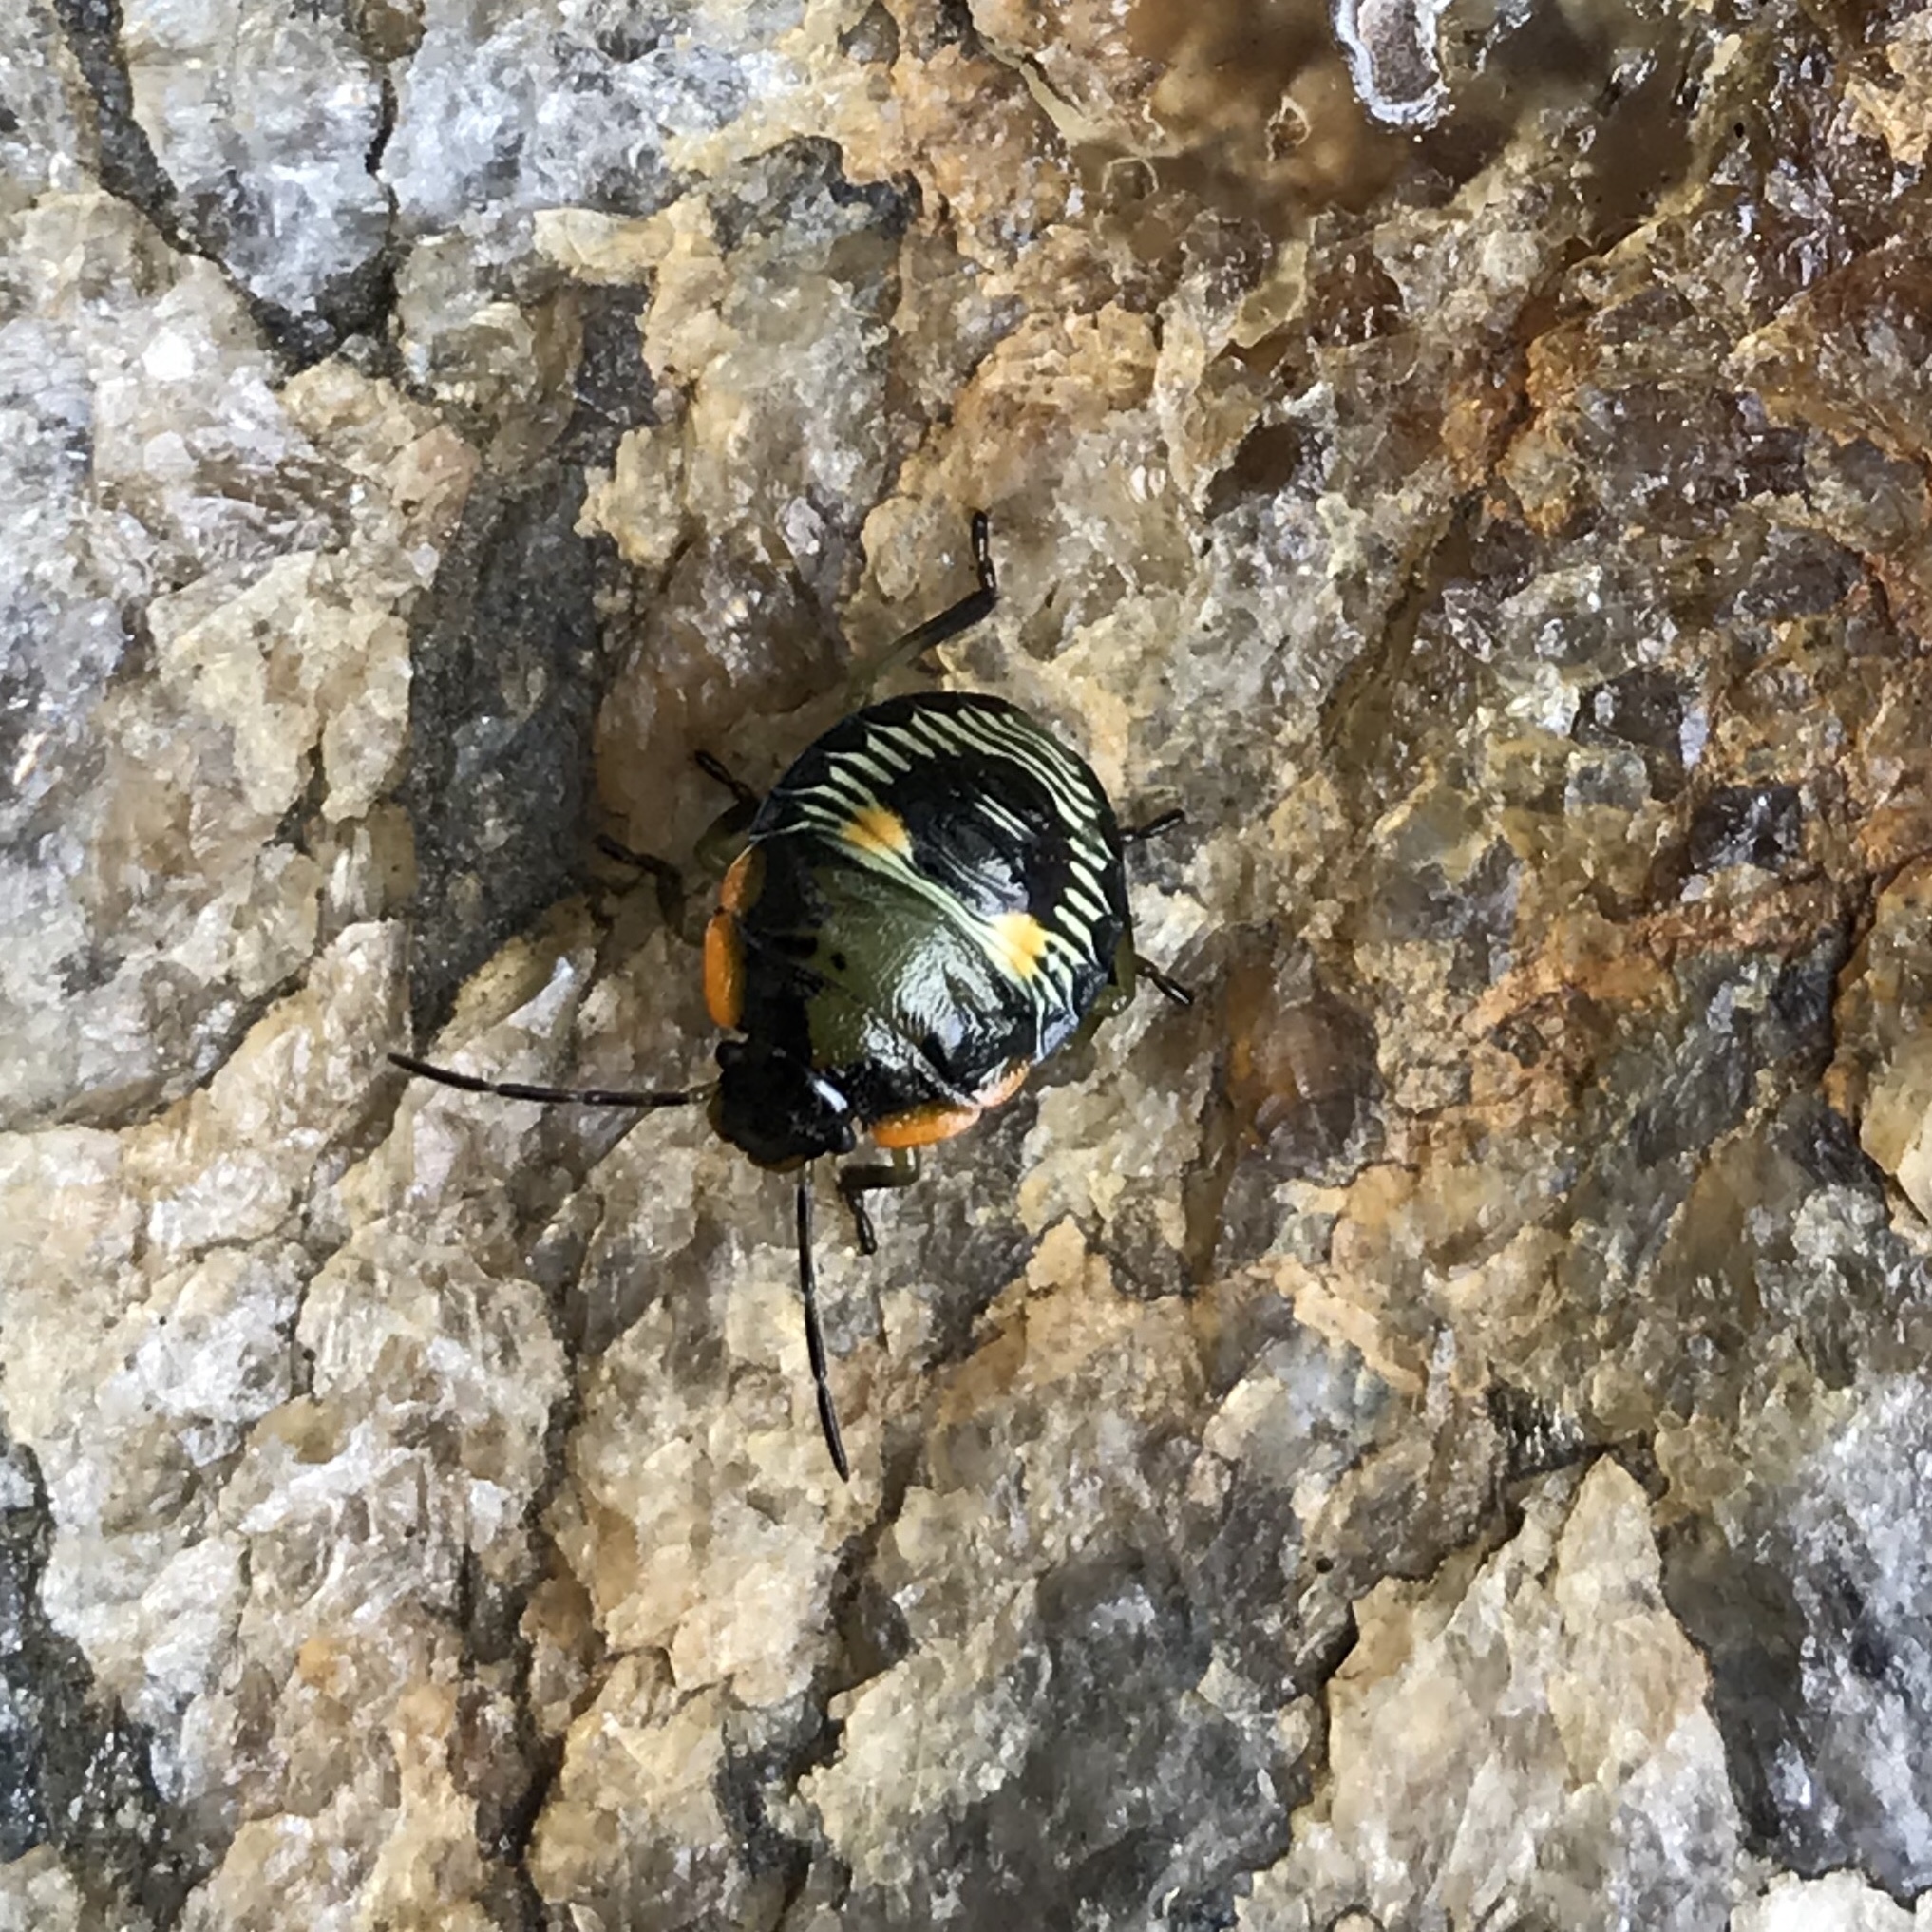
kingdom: Animalia
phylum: Arthropoda
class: Insecta
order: Hemiptera
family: Pentatomidae
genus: Chinavia
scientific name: Chinavia hilaris
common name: Green stink bug
